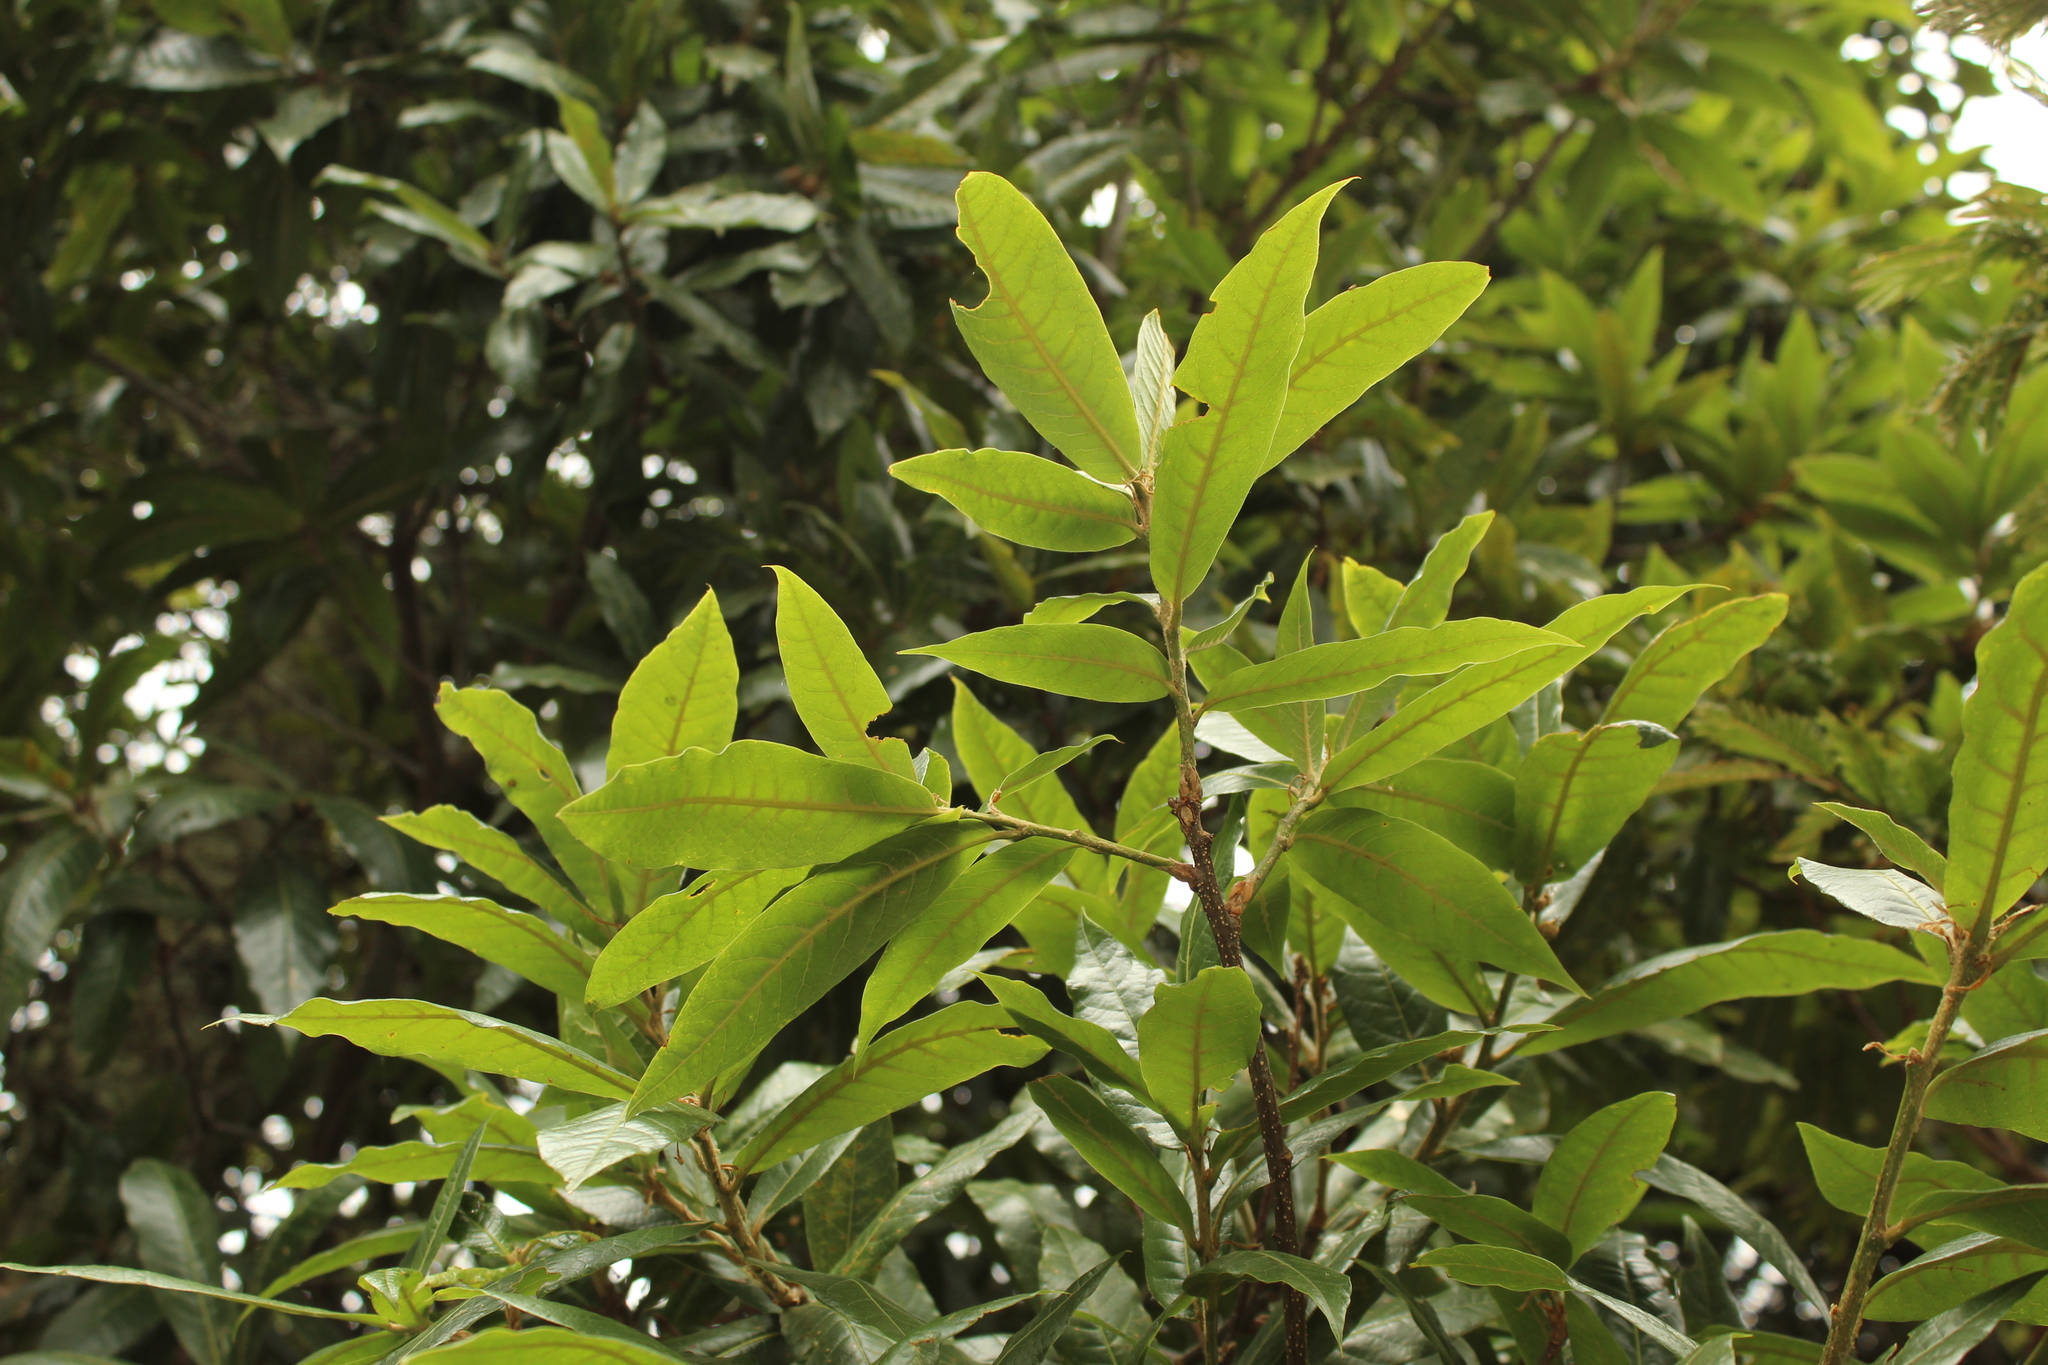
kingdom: Plantae
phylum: Tracheophyta
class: Magnoliopsida
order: Fagales
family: Fagaceae
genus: Quercus
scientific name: Quercus humboldtii
